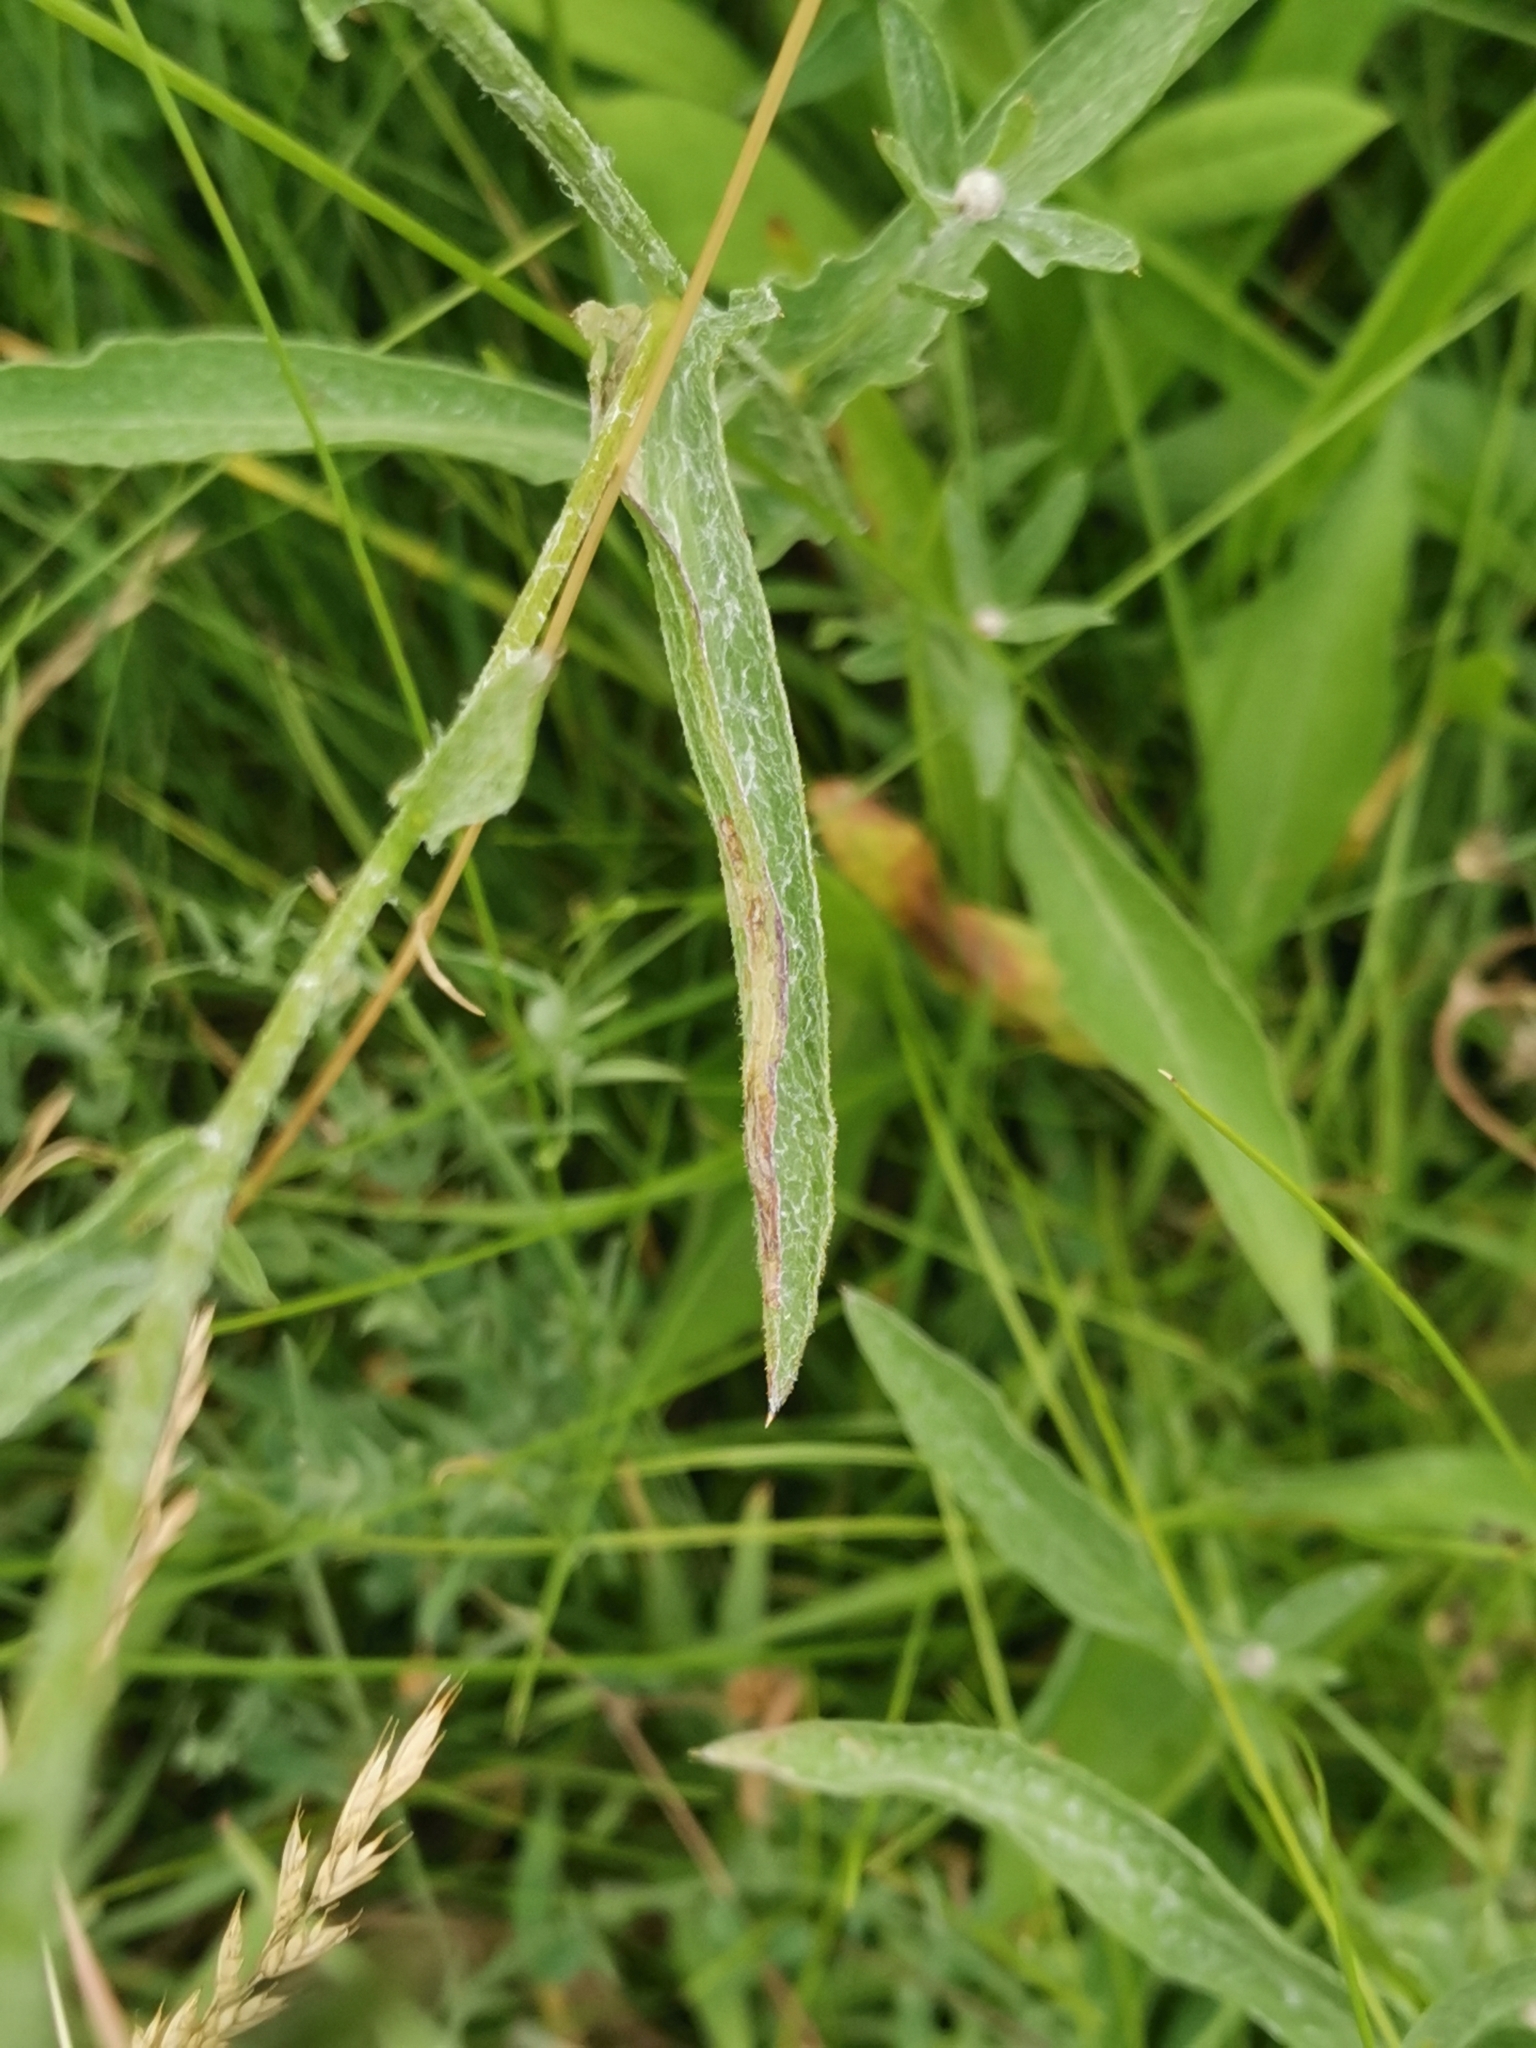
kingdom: Plantae
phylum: Tracheophyta
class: Magnoliopsida
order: Asterales
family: Asteraceae
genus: Centaurea
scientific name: Centaurea jacea
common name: Brown knapweed
